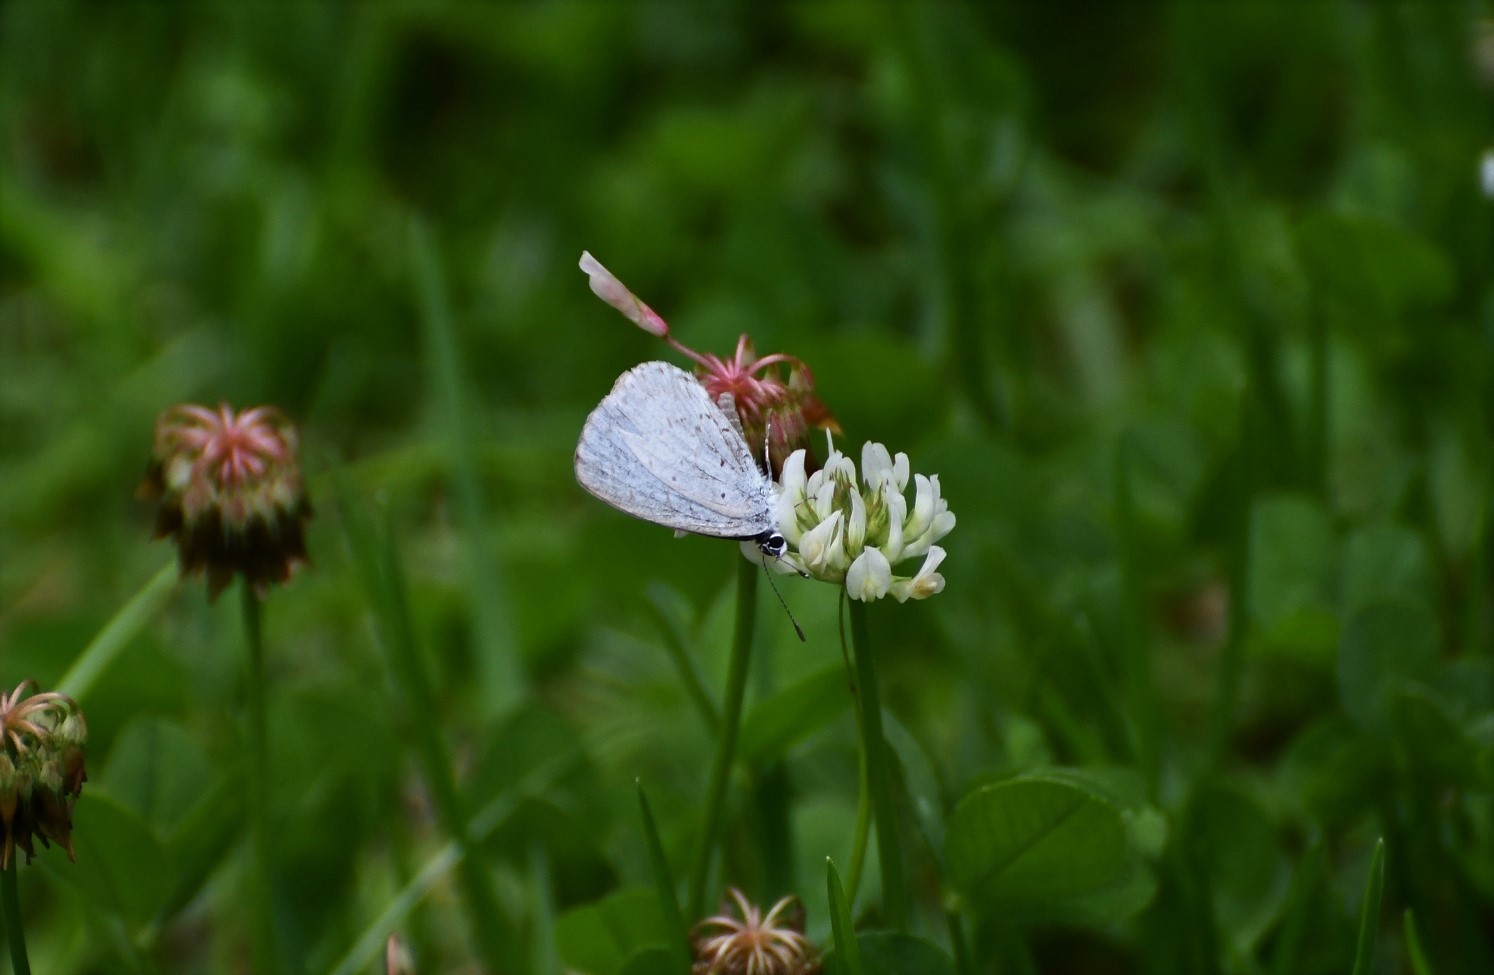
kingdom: Animalia
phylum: Arthropoda
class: Insecta
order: Lepidoptera
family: Lycaenidae
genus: Celastrina
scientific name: Celastrina ladon
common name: Spring azure
